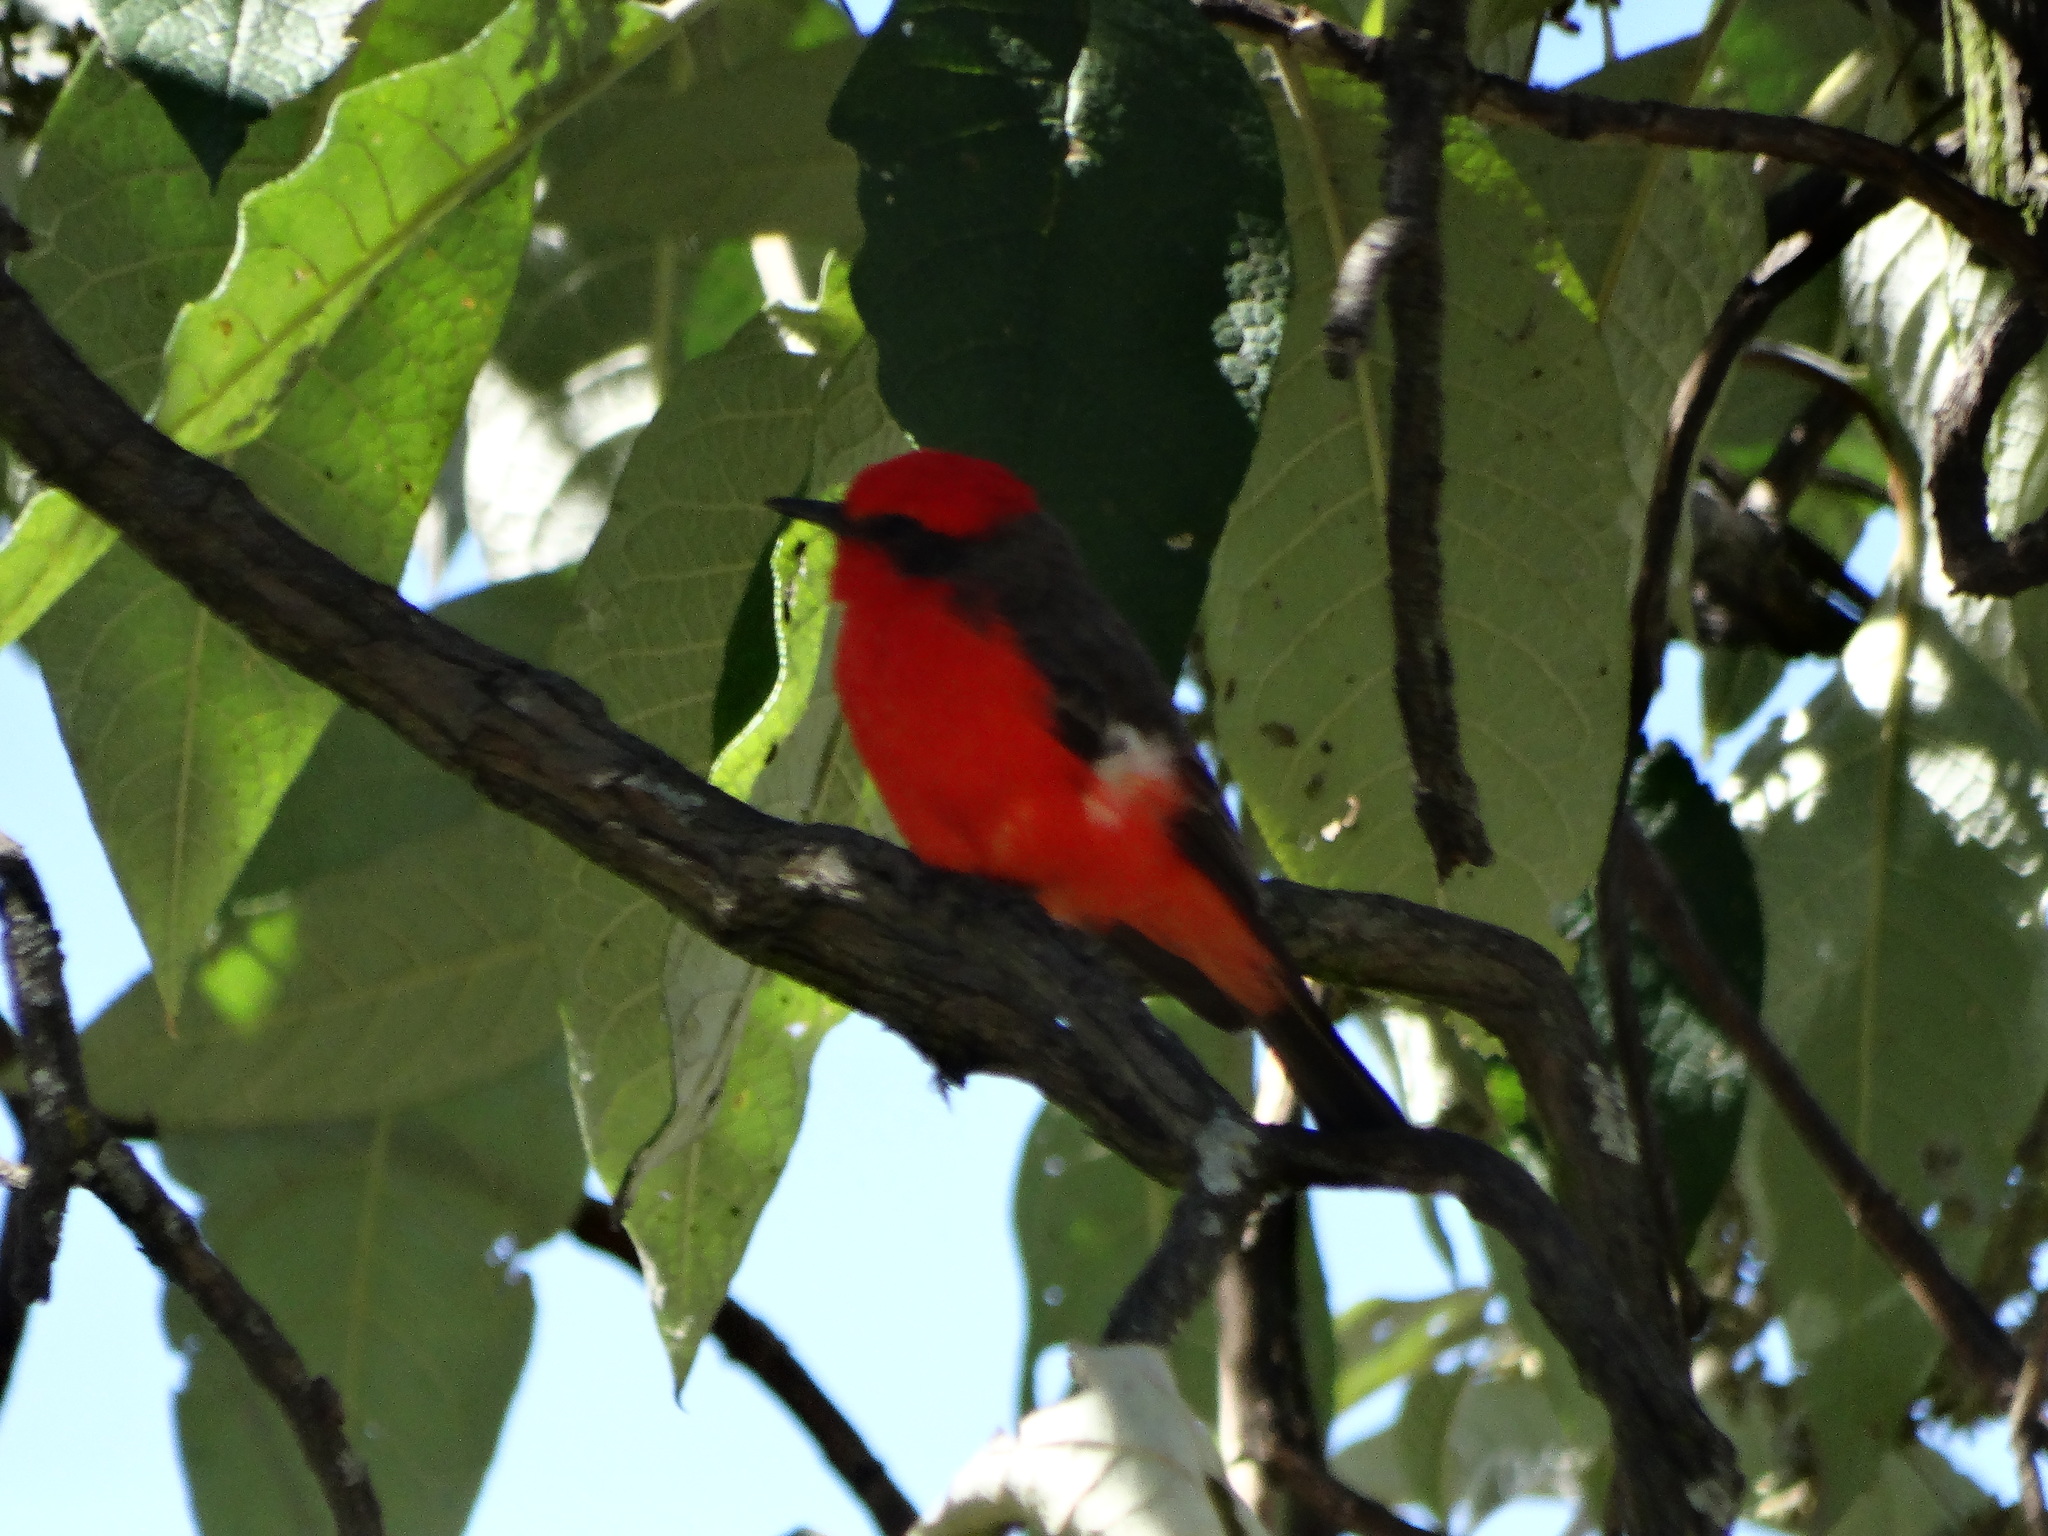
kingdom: Animalia
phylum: Chordata
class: Aves
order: Passeriformes
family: Tyrannidae
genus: Pyrocephalus
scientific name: Pyrocephalus rubinus
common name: Vermilion flycatcher
